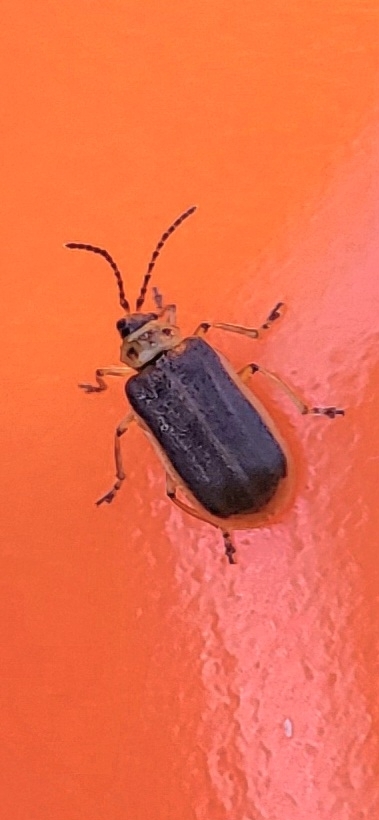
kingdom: Animalia
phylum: Arthropoda
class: Insecta
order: Coleoptera
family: Chrysomelidae
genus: Galerucella
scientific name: Galerucella nymphaeae
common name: Leaf beetle
